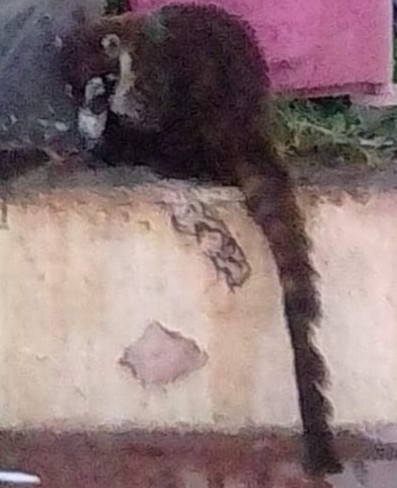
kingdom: Animalia
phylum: Chordata
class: Mammalia
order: Carnivora
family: Procyonidae
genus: Nasua
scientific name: Nasua narica
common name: White-nosed coati
